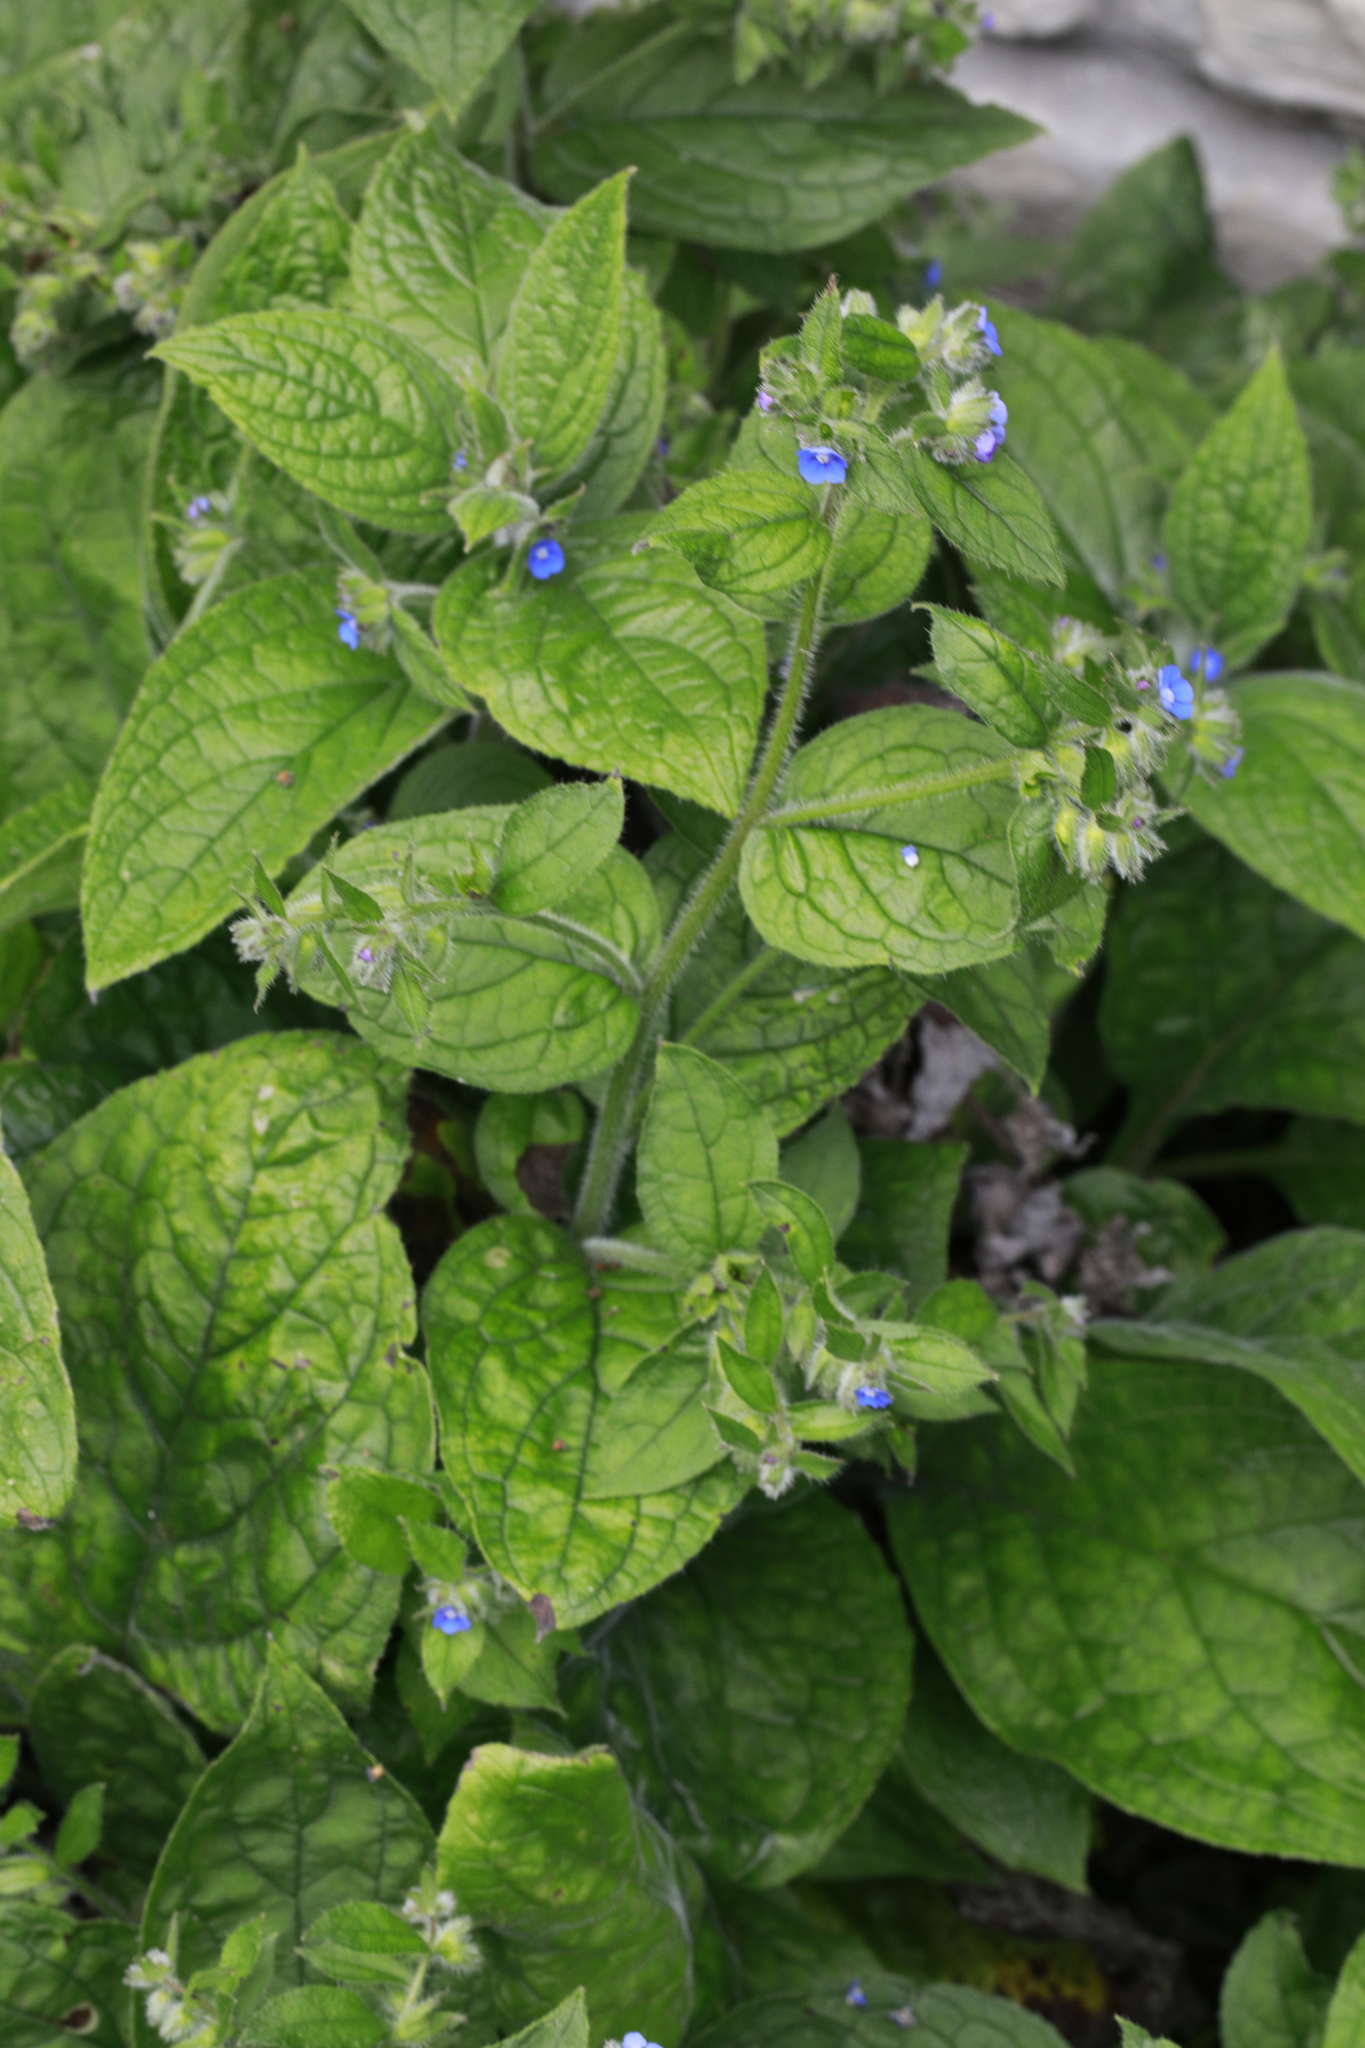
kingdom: Plantae
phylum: Tracheophyta
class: Magnoliopsida
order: Boraginales
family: Boraginaceae
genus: Pentaglottis
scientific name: Pentaglottis sempervirens
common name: Green alkanet
